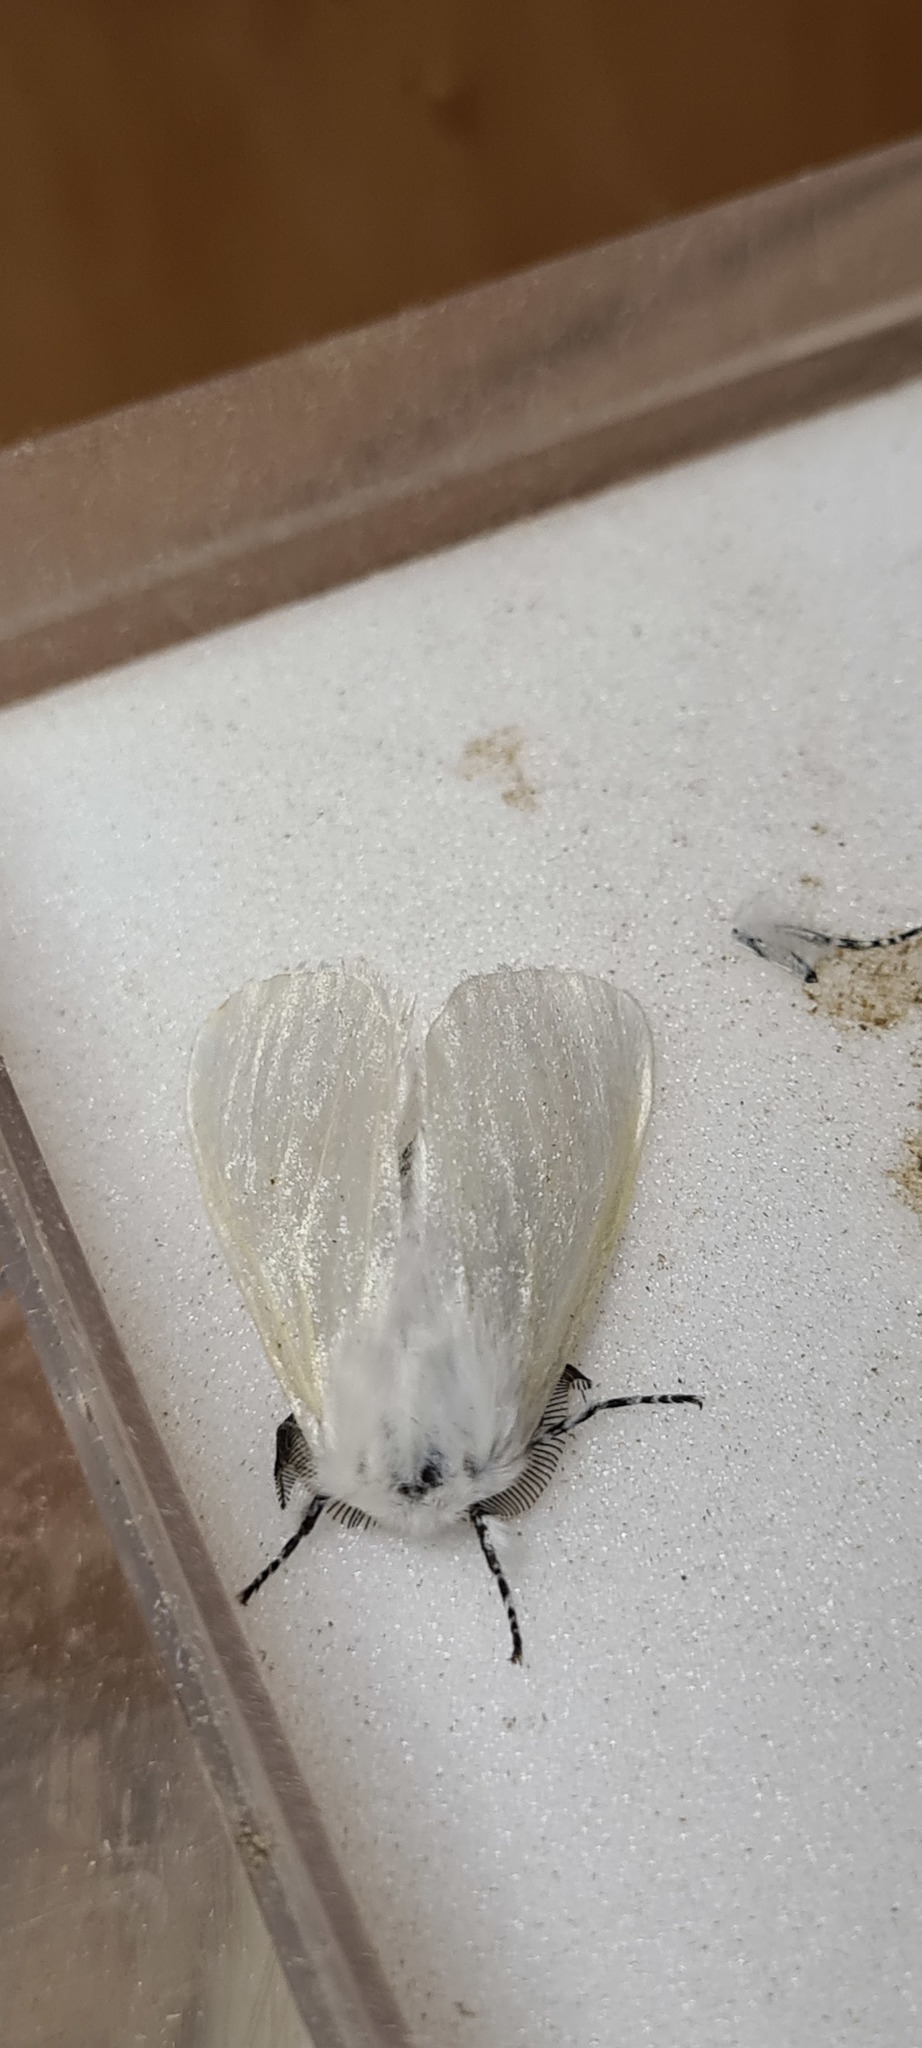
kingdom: Animalia
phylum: Arthropoda
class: Insecta
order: Lepidoptera
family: Erebidae
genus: Leucoma
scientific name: Leucoma salicis
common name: White satin moth
